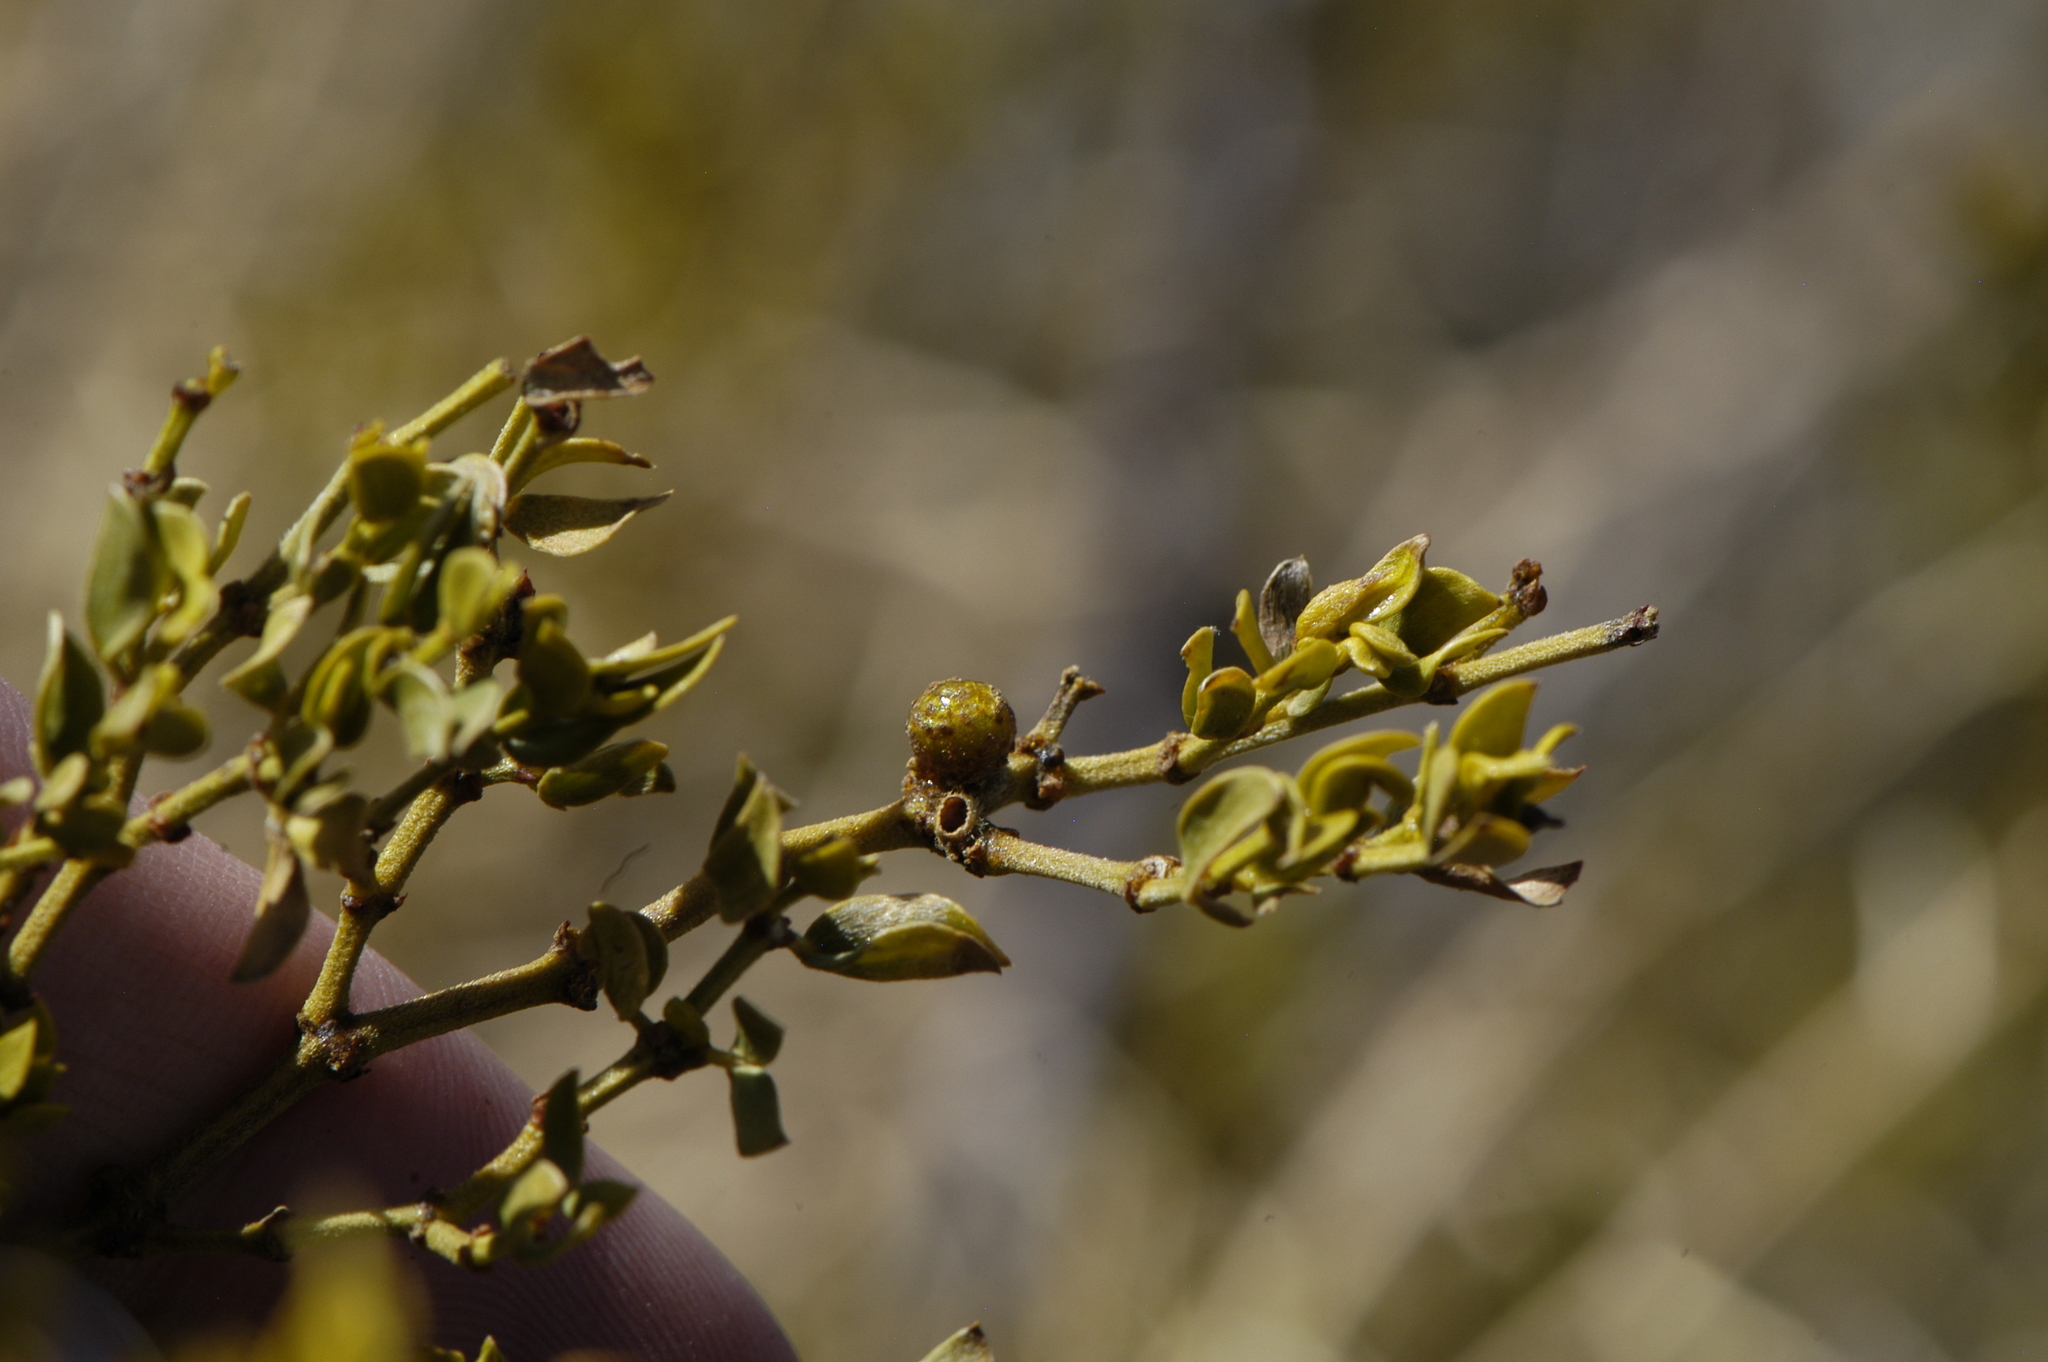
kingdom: Animalia
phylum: Arthropoda
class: Insecta
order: Diptera
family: Cecidomyiidae
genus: Asphondylia
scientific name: Asphondylia resinosa
